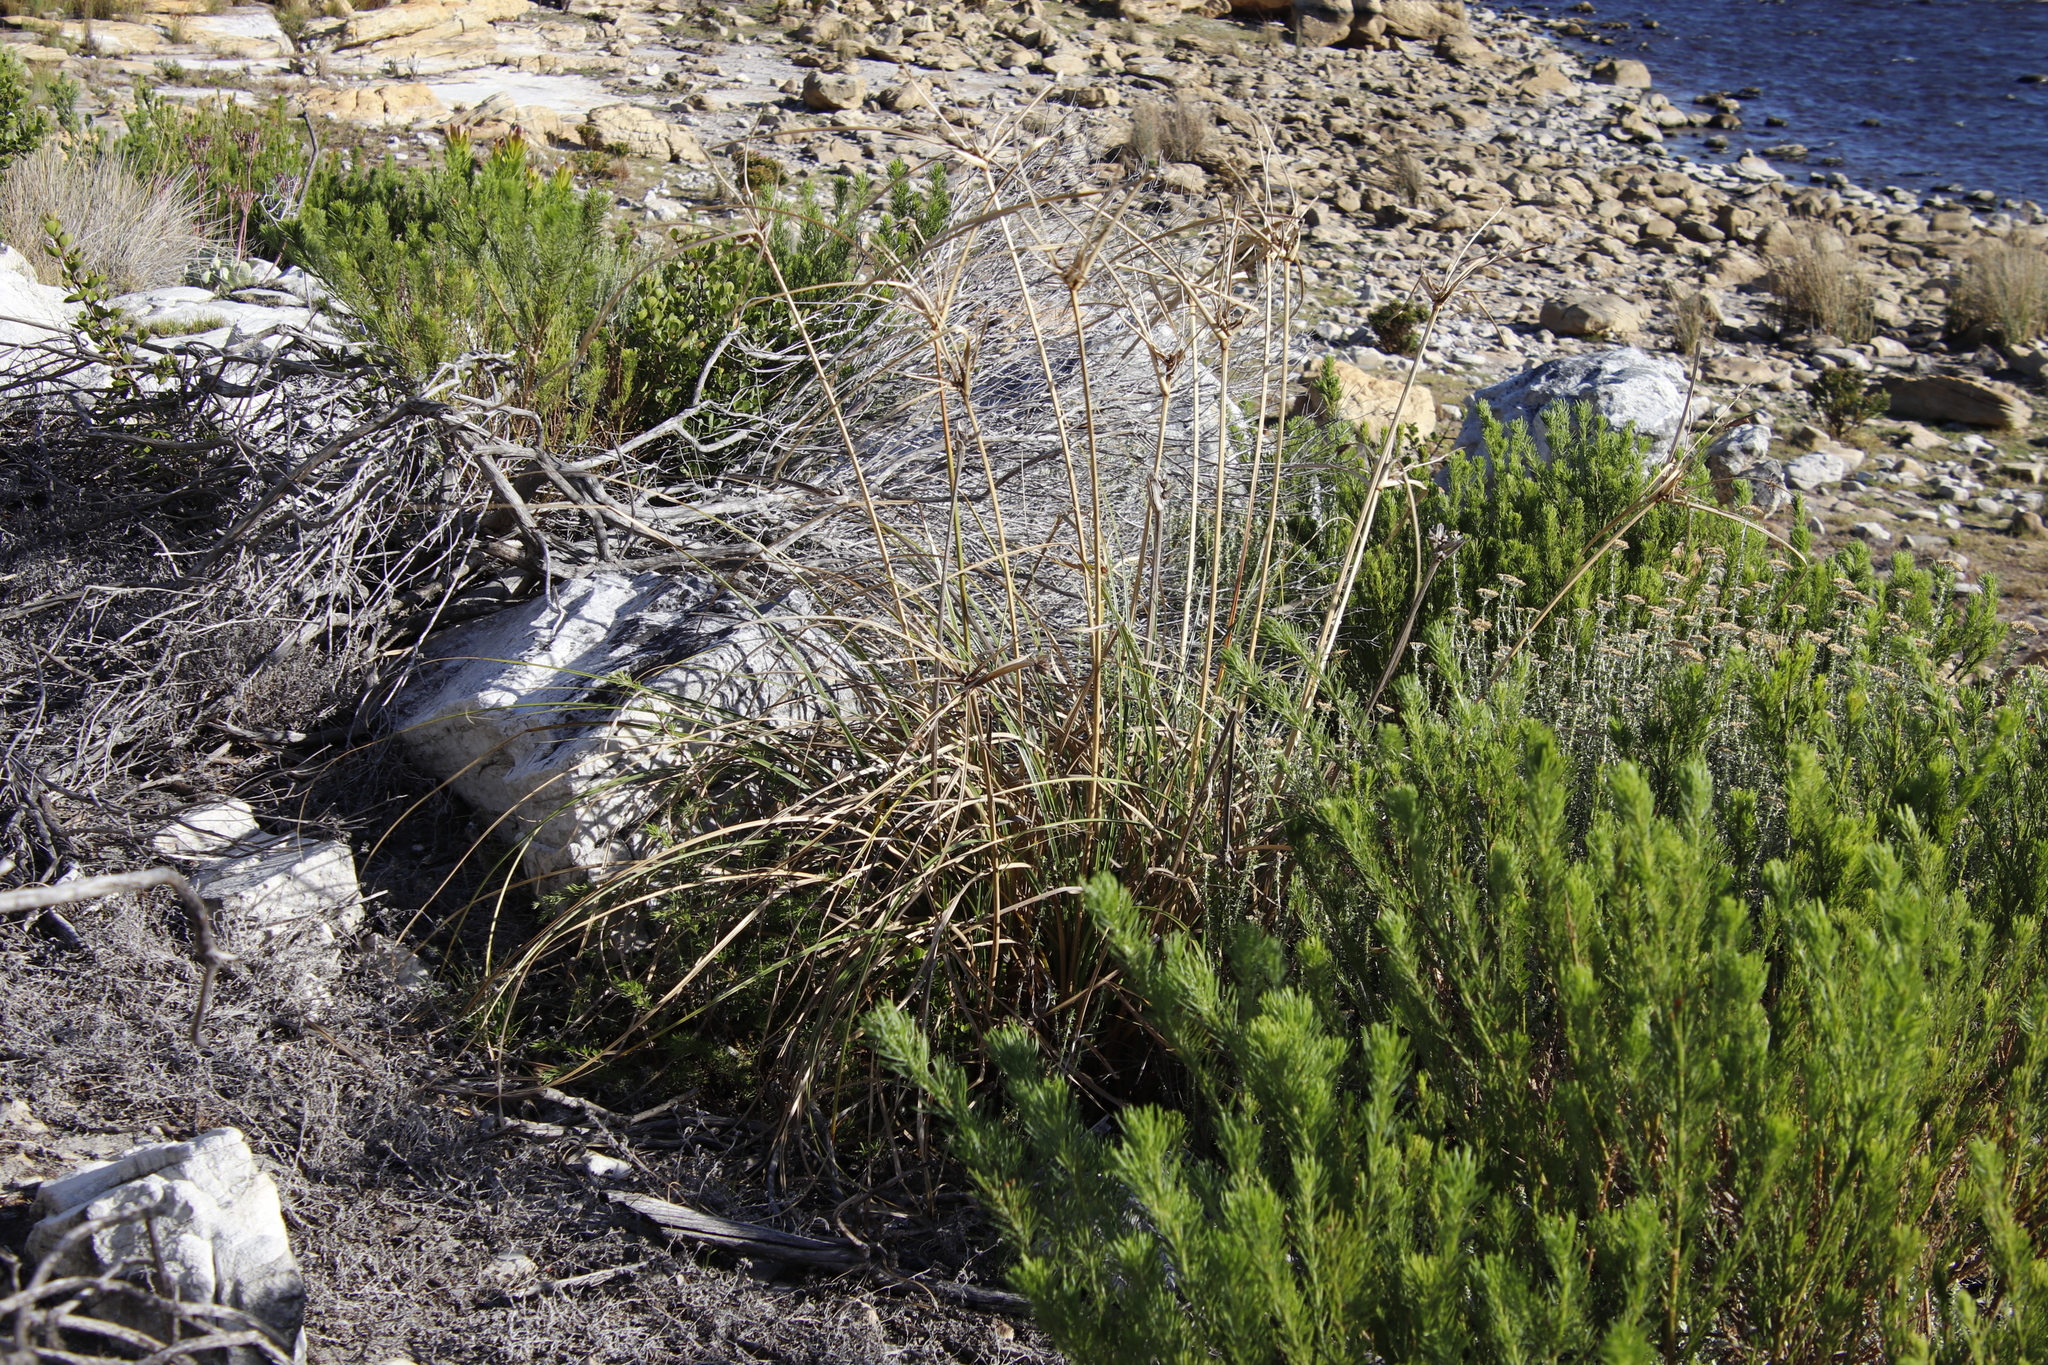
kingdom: Plantae
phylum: Tracheophyta
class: Liliopsida
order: Poales
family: Cyperaceae
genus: Cyperus
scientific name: Cyperus thunbergii
